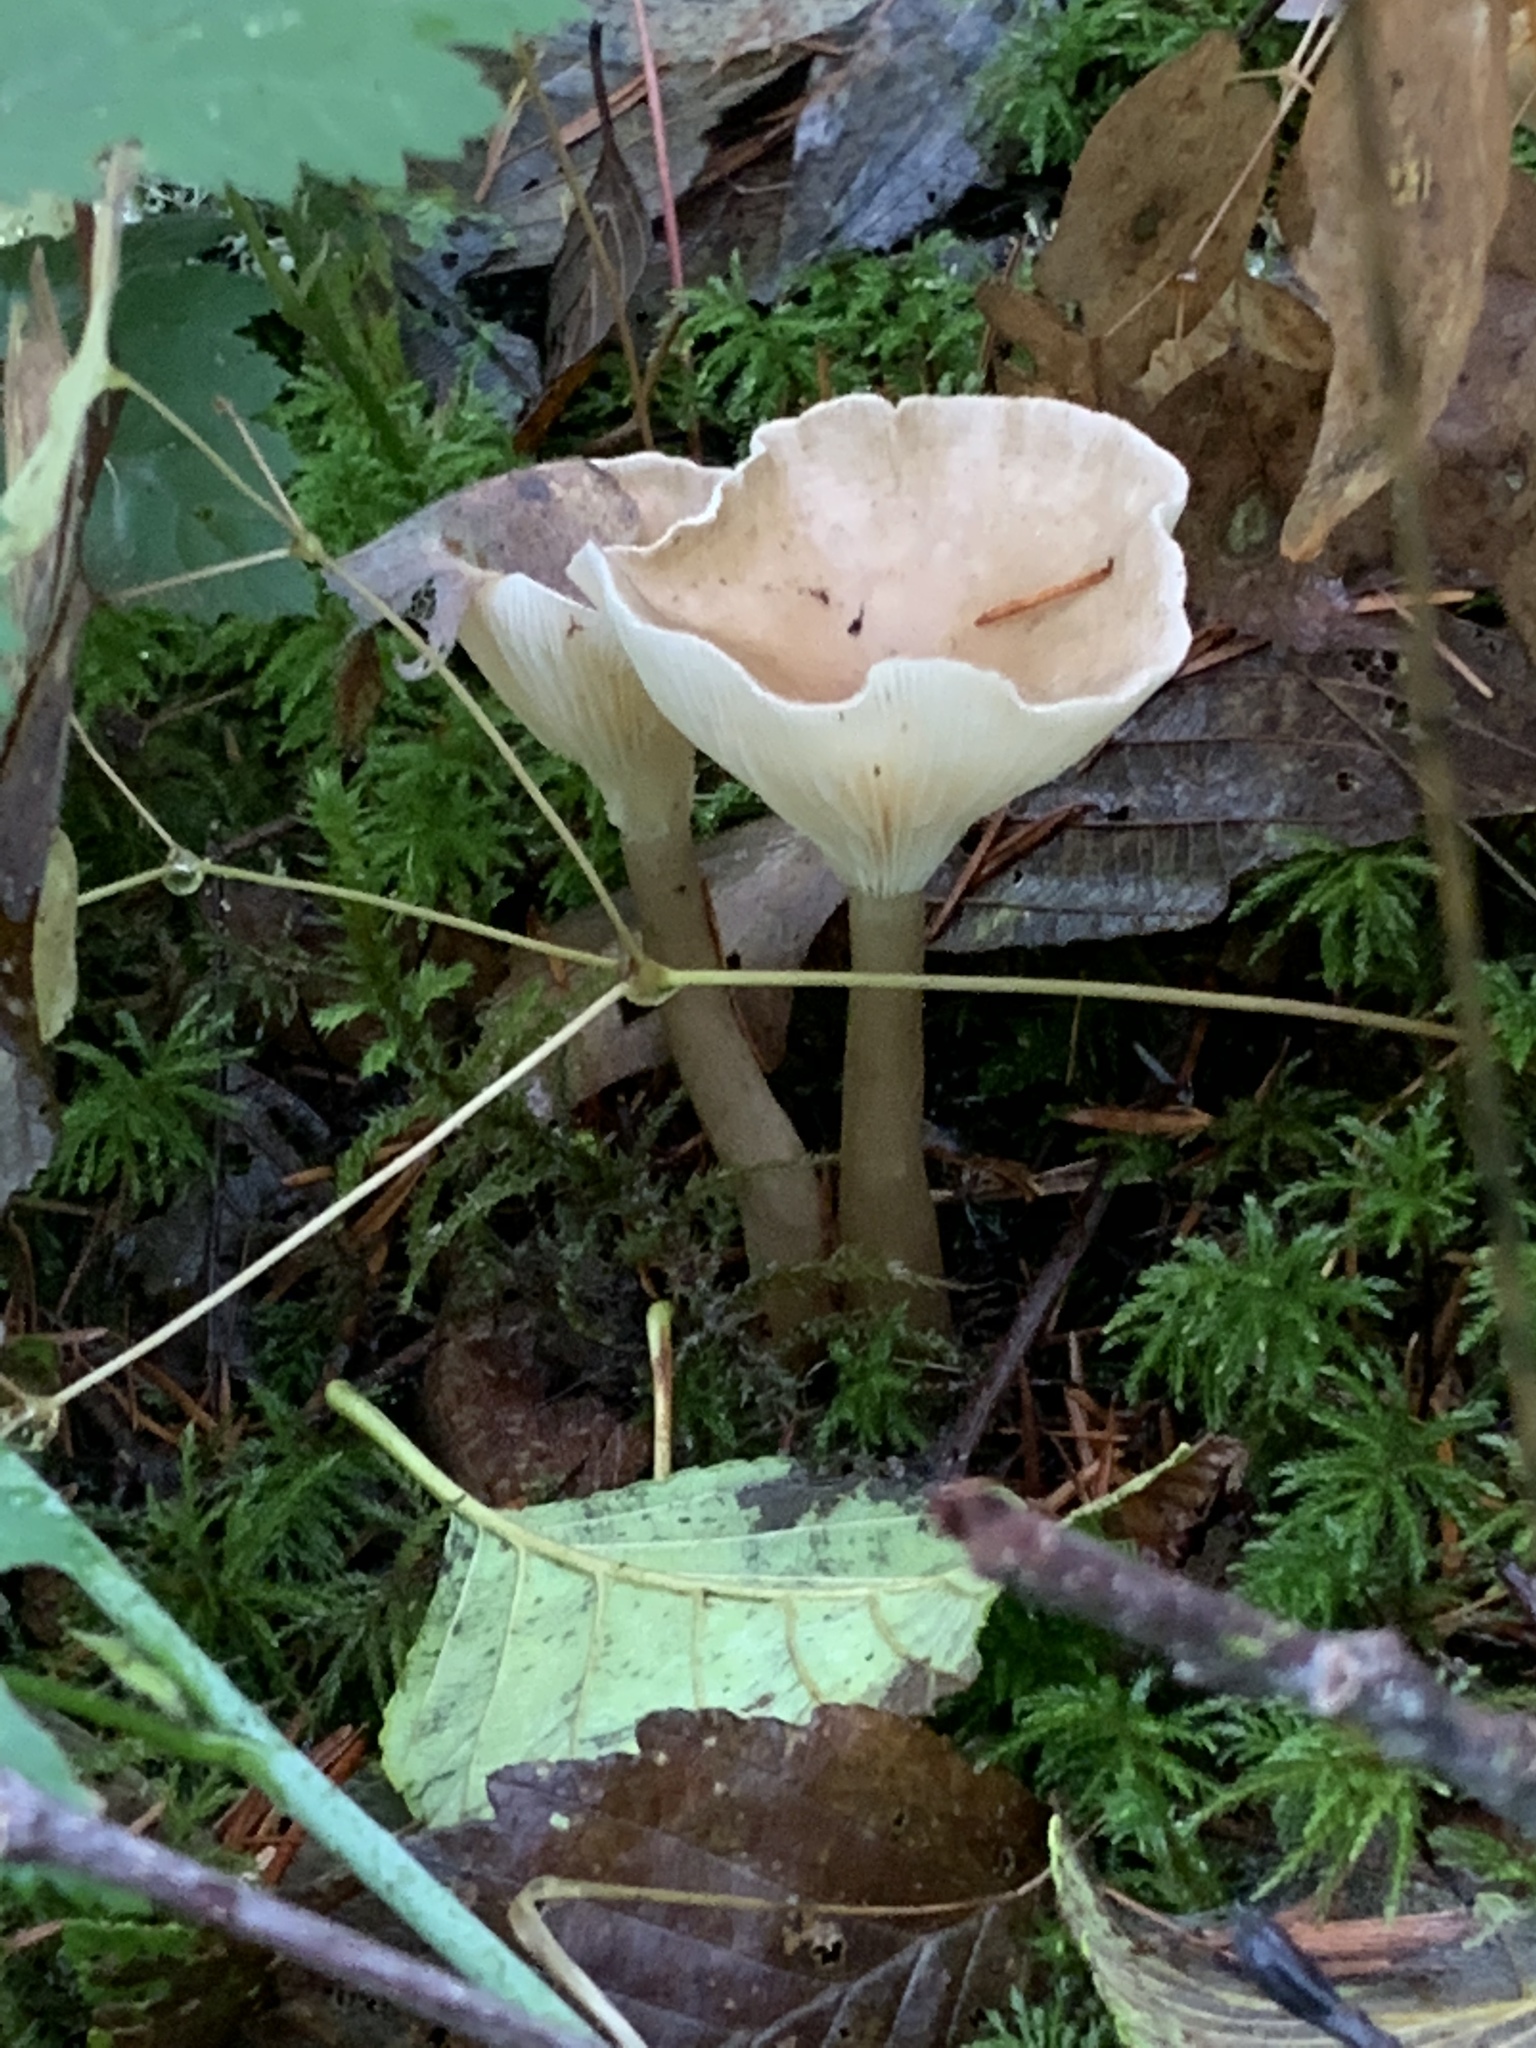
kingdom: Fungi
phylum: Basidiomycota
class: Agaricomycetes
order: Agaricales
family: Tricholomataceae
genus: Infundibulicybe
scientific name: Infundibulicybe gibba
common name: Common funnel
